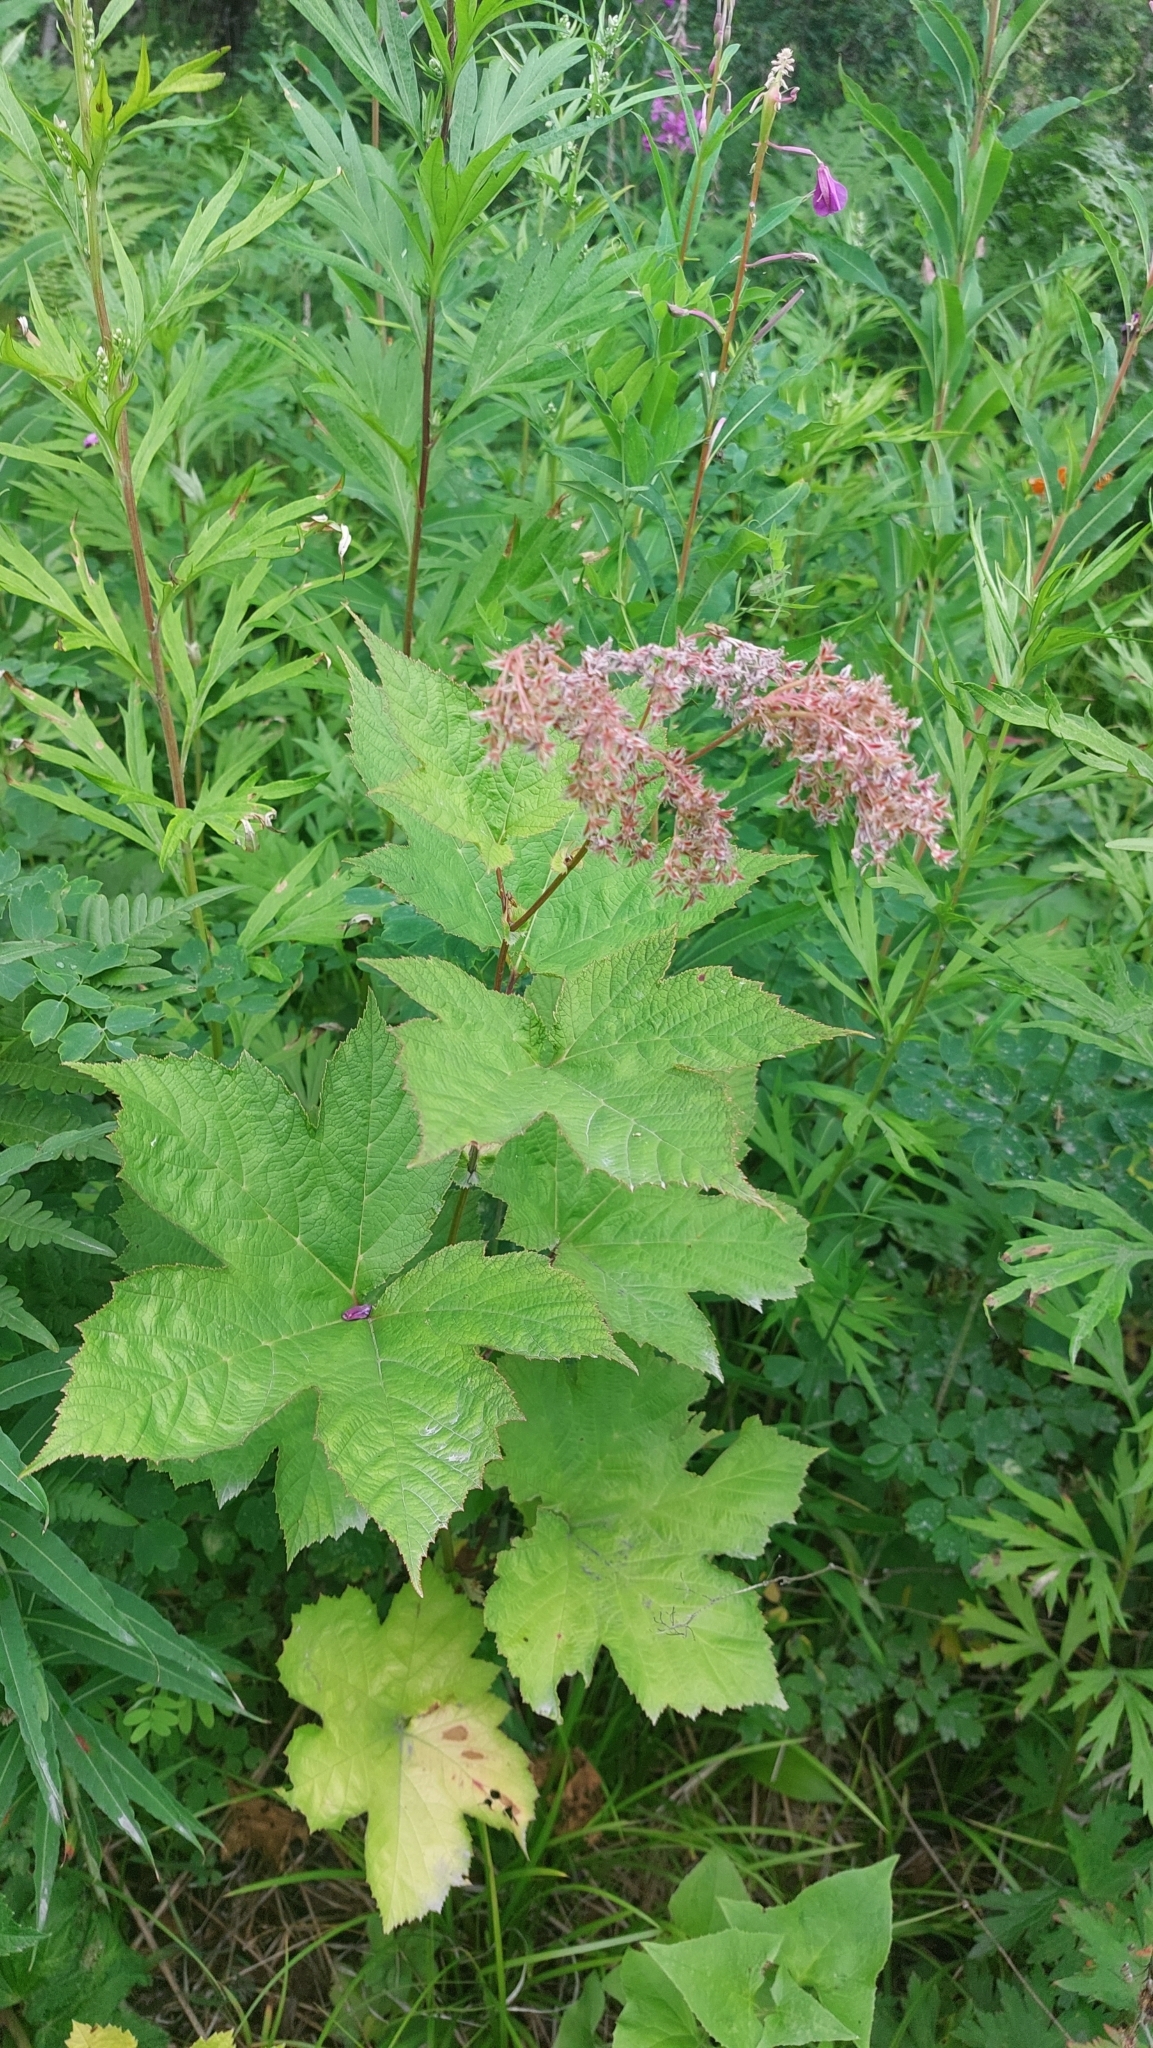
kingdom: Plantae
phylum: Tracheophyta
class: Magnoliopsida
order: Rosales
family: Rosaceae
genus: Filipendula
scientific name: Filipendula camtschatica
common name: Giant meadowsweet
